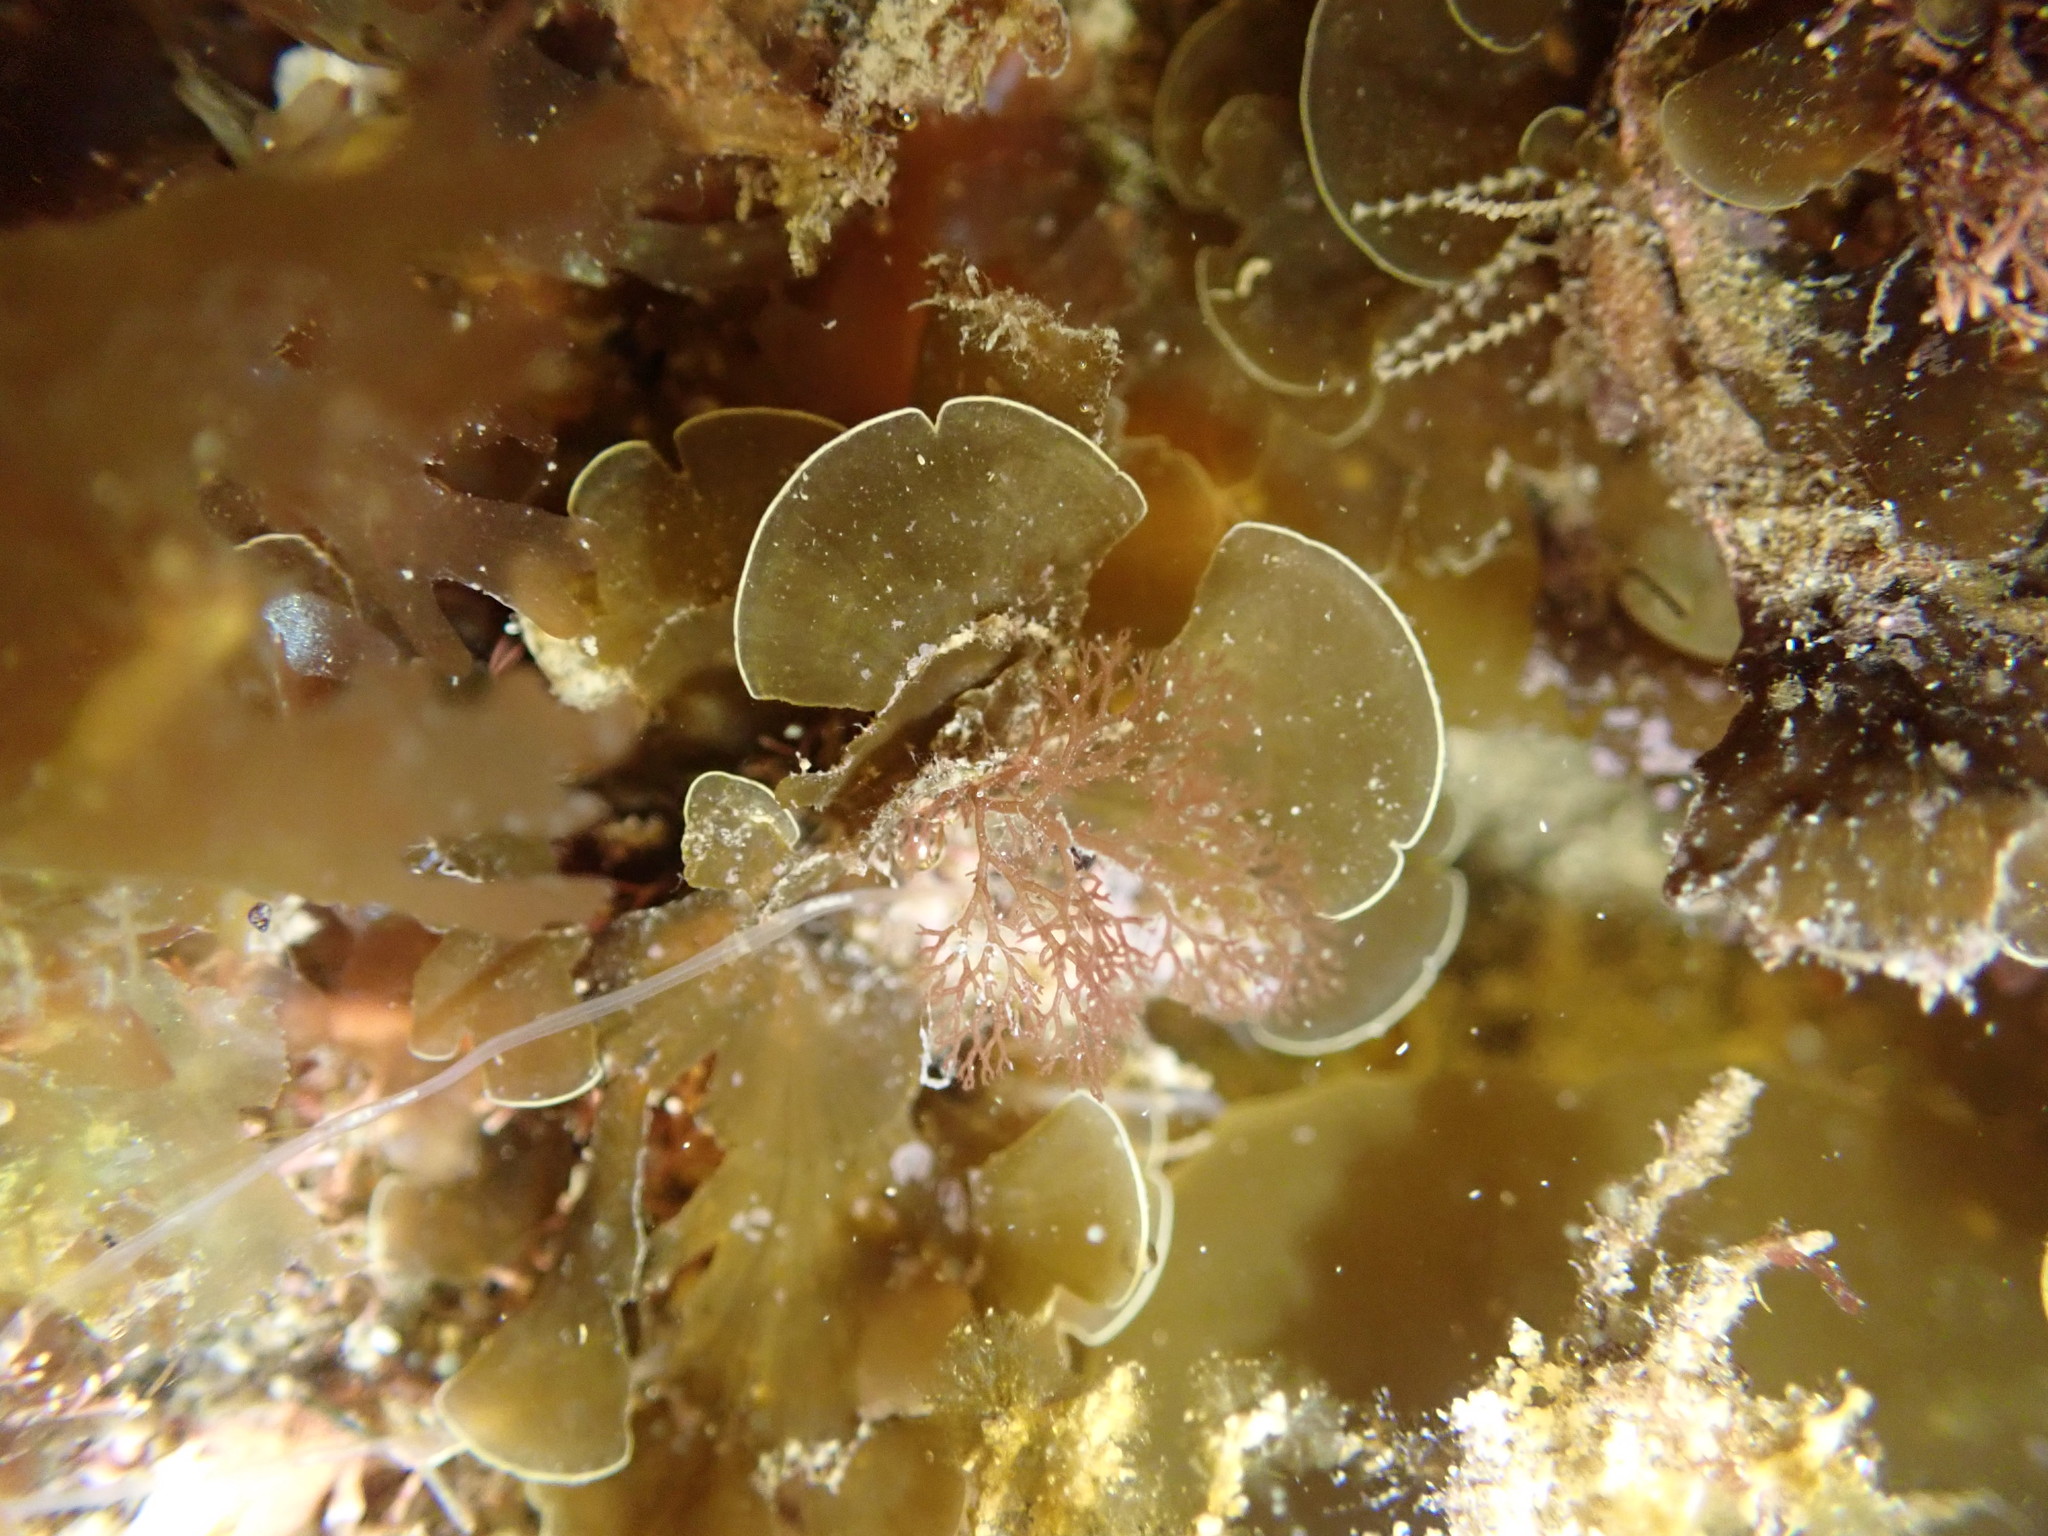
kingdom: Chromista
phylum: Ochrophyta
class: Phaeophyceae
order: Dictyotales
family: Dictyotaceae
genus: Zonaria
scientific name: Zonaria aureomarginata
